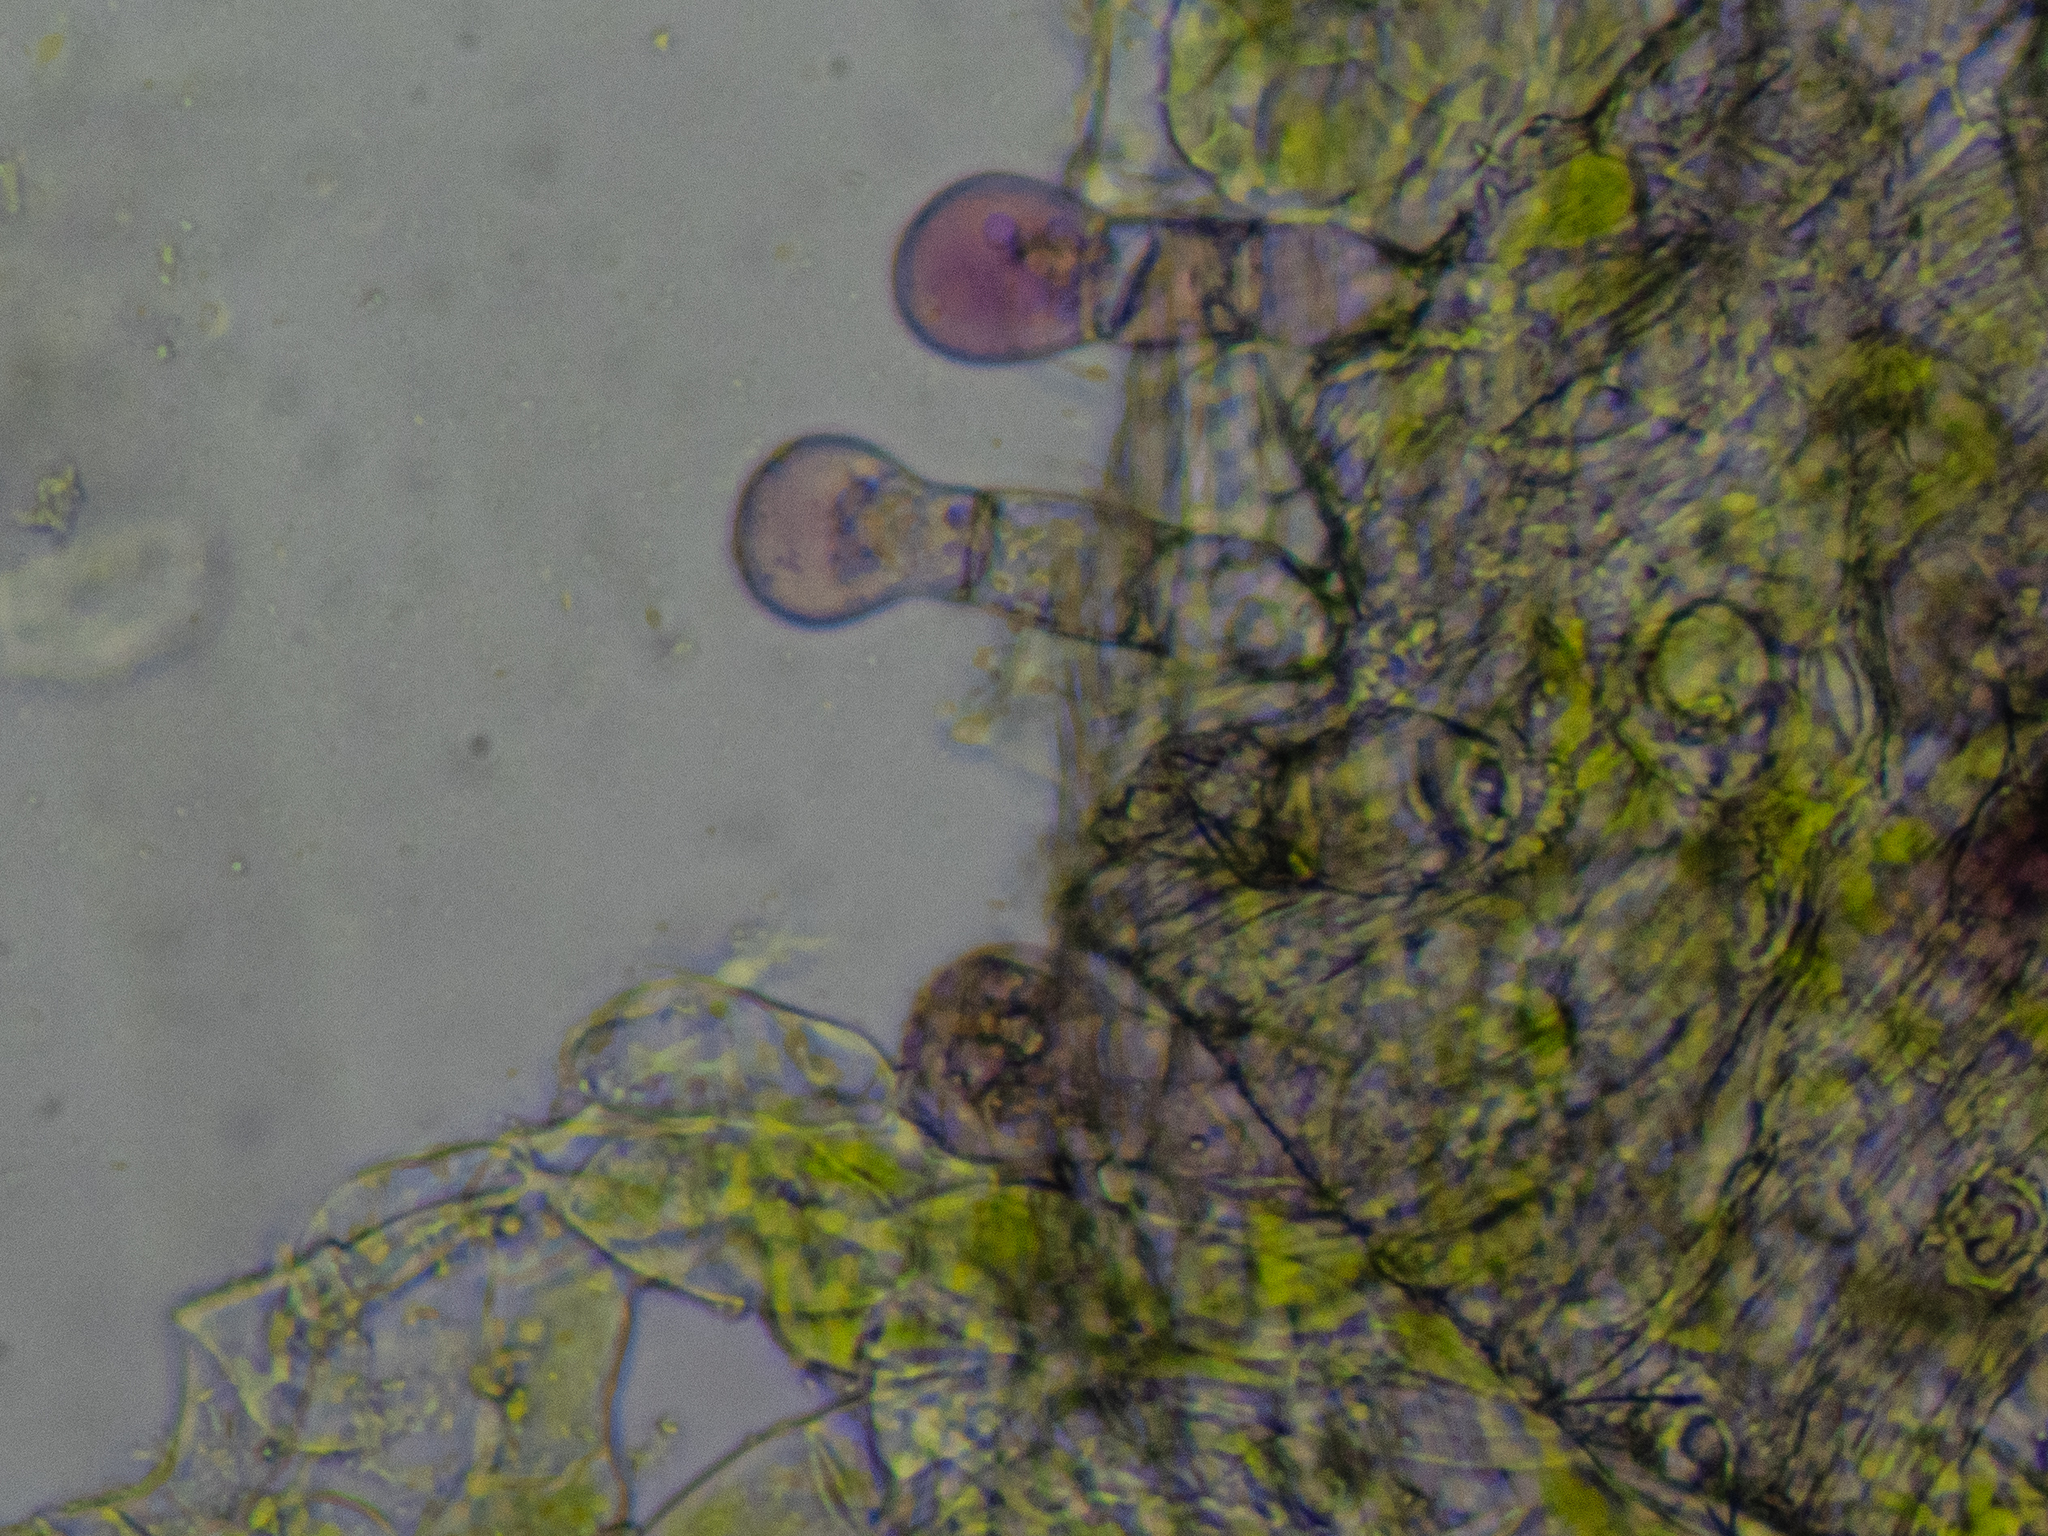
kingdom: Plantae
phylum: Tracheophyta
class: Magnoliopsida
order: Ericales
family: Primulaceae
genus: Soldanella
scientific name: Soldanella major
